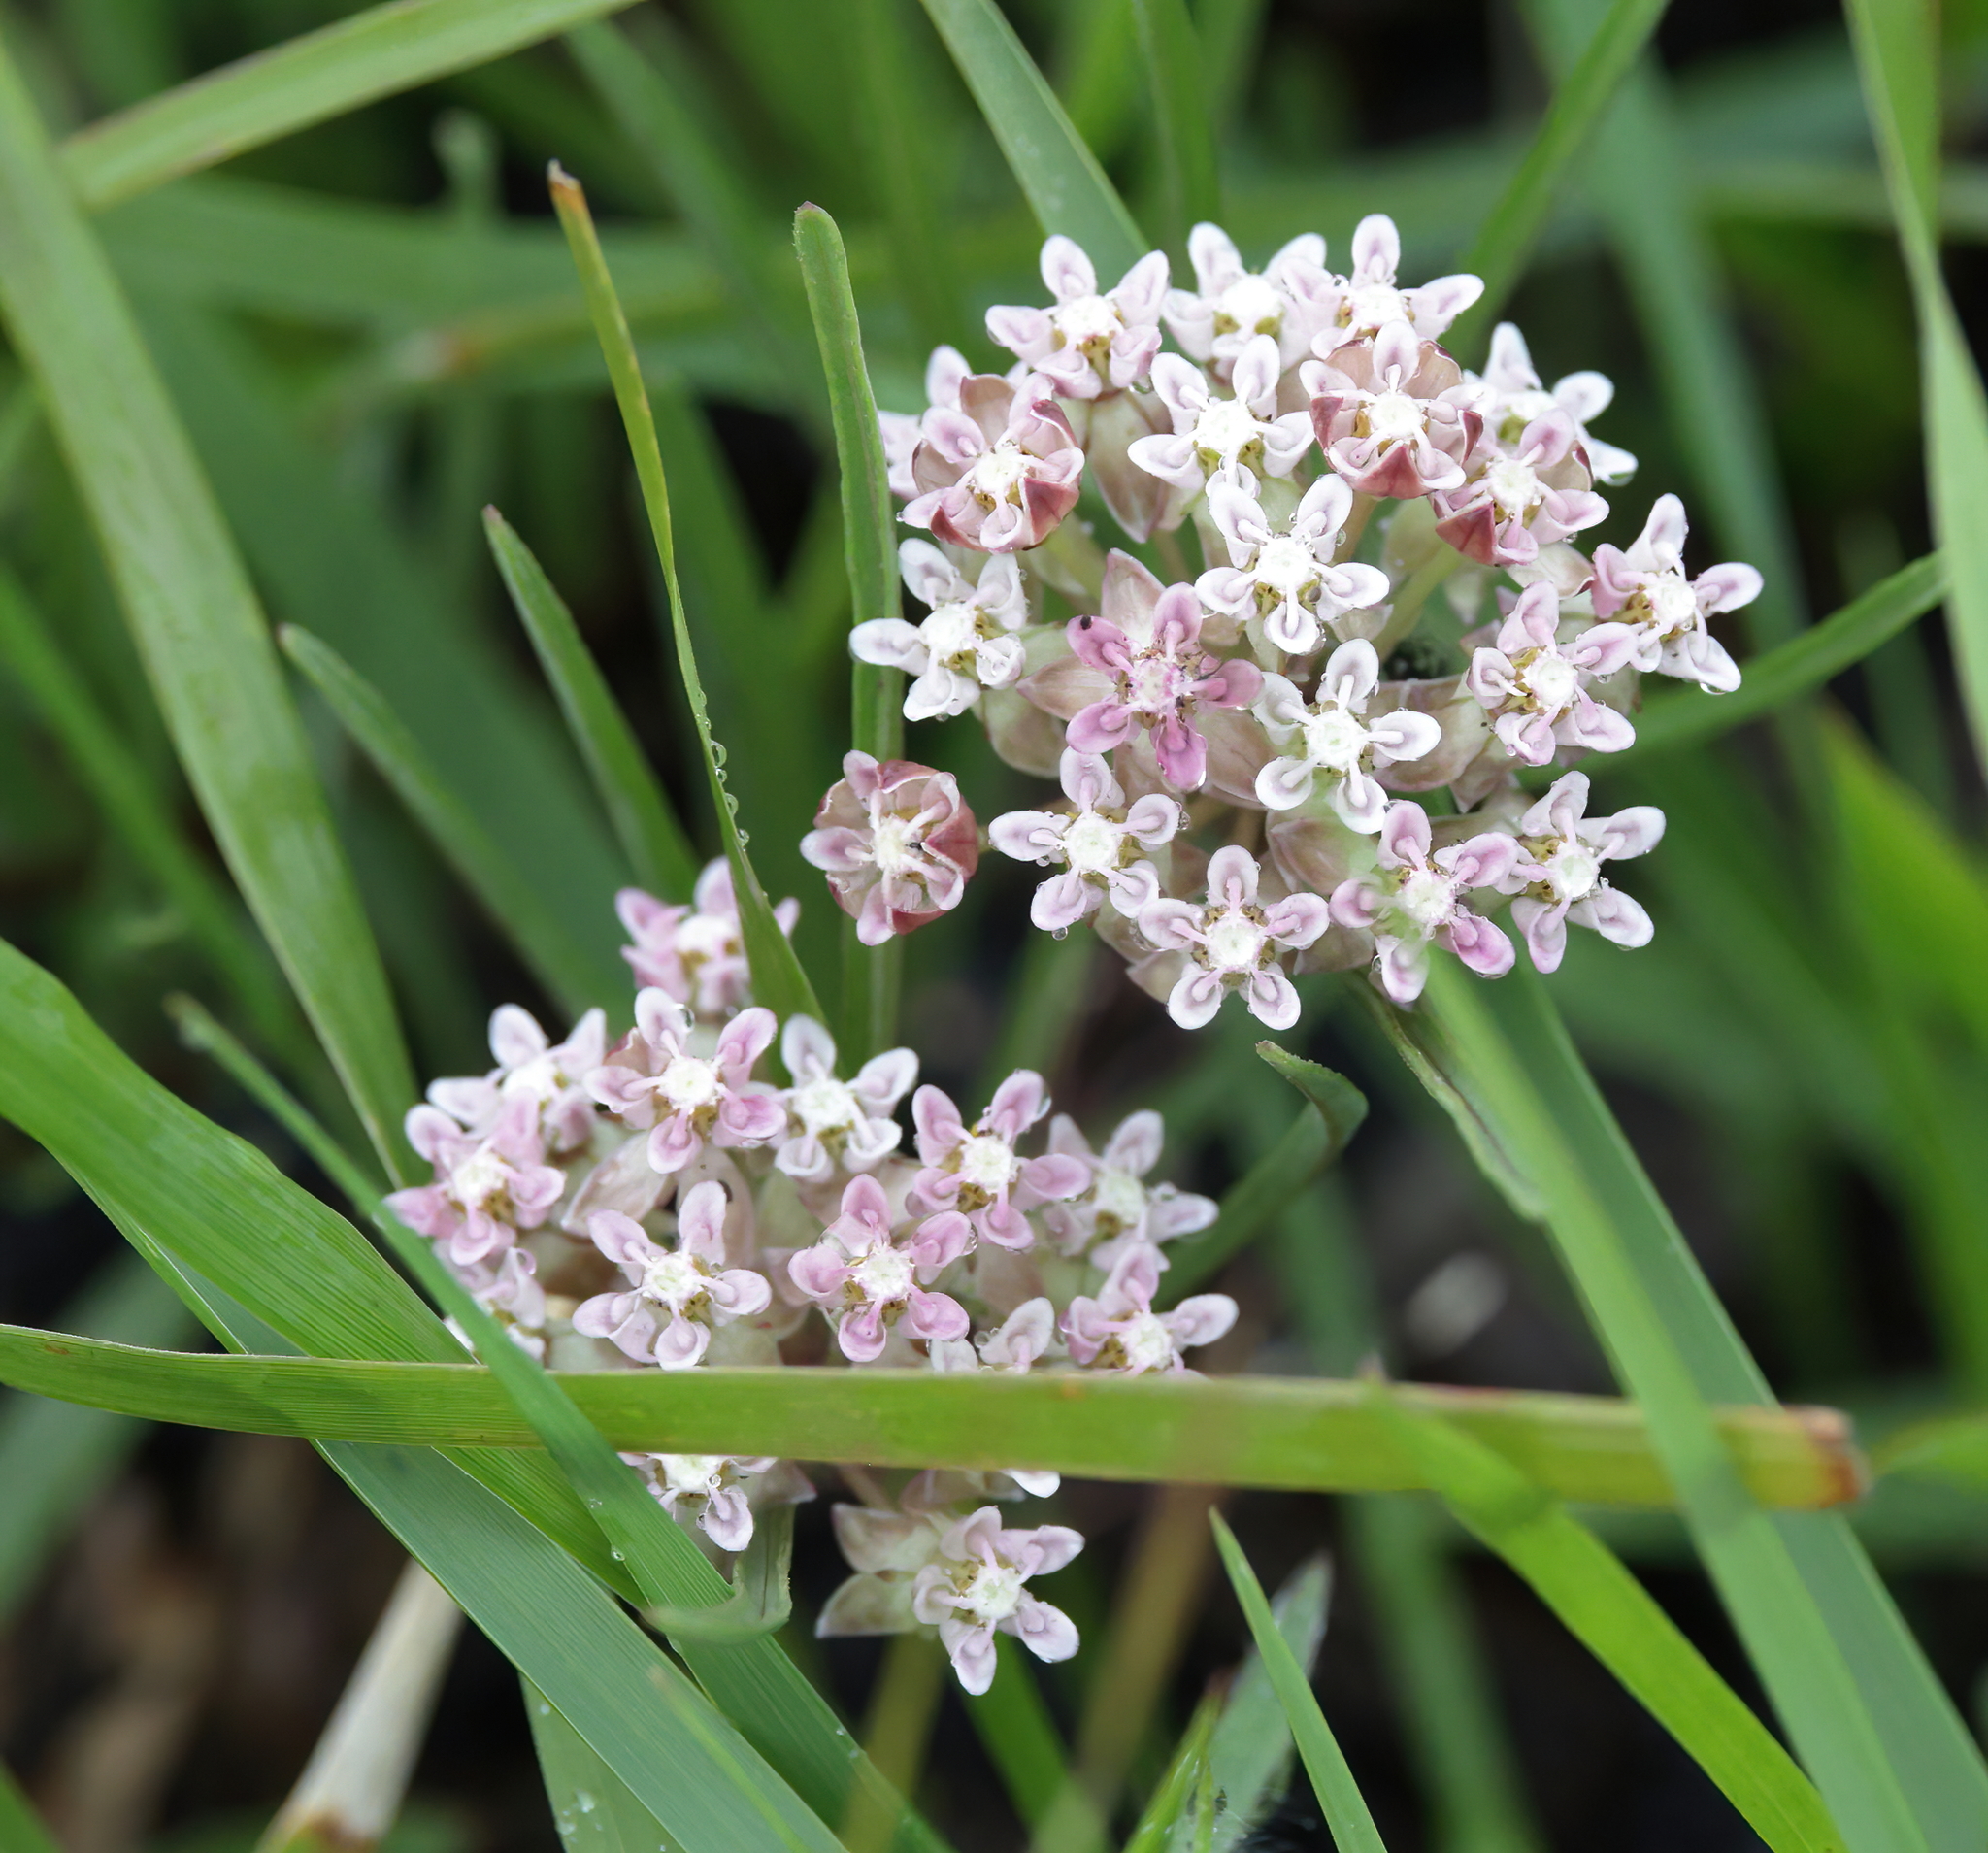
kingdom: Plantae
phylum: Tracheophyta
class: Magnoliopsida
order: Gentianales
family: Apocynaceae
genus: Asclepias
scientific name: Asclepias michauxii
